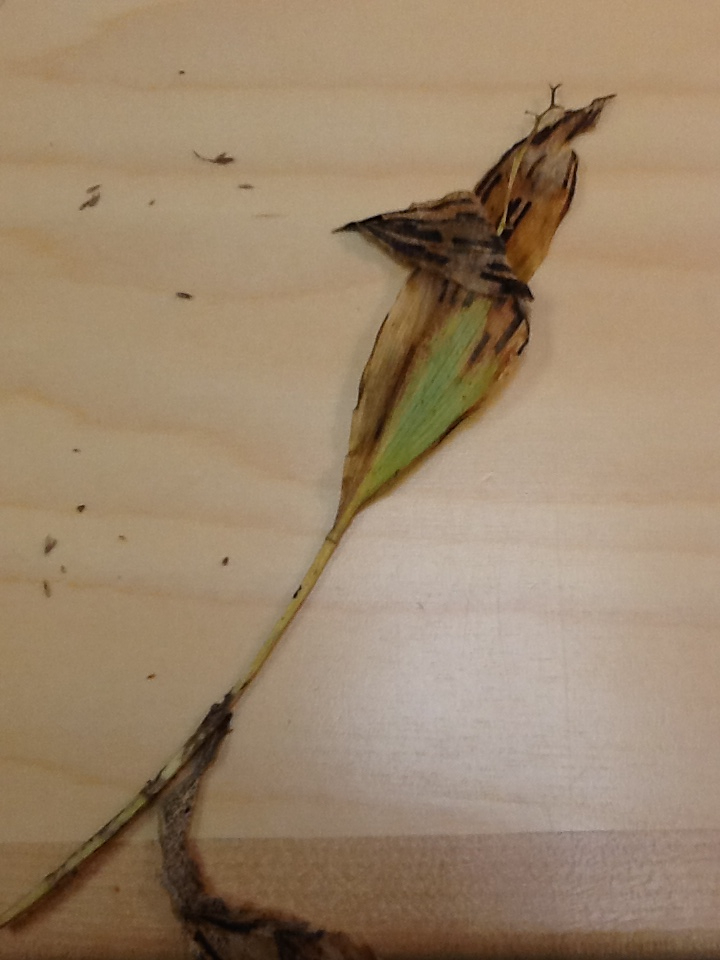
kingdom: Plantae
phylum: Tracheophyta
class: Liliopsida
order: Asparagales
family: Asparagaceae
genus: Maianthemum
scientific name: Maianthemum trifolium
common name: Swamp false solomon's seal
